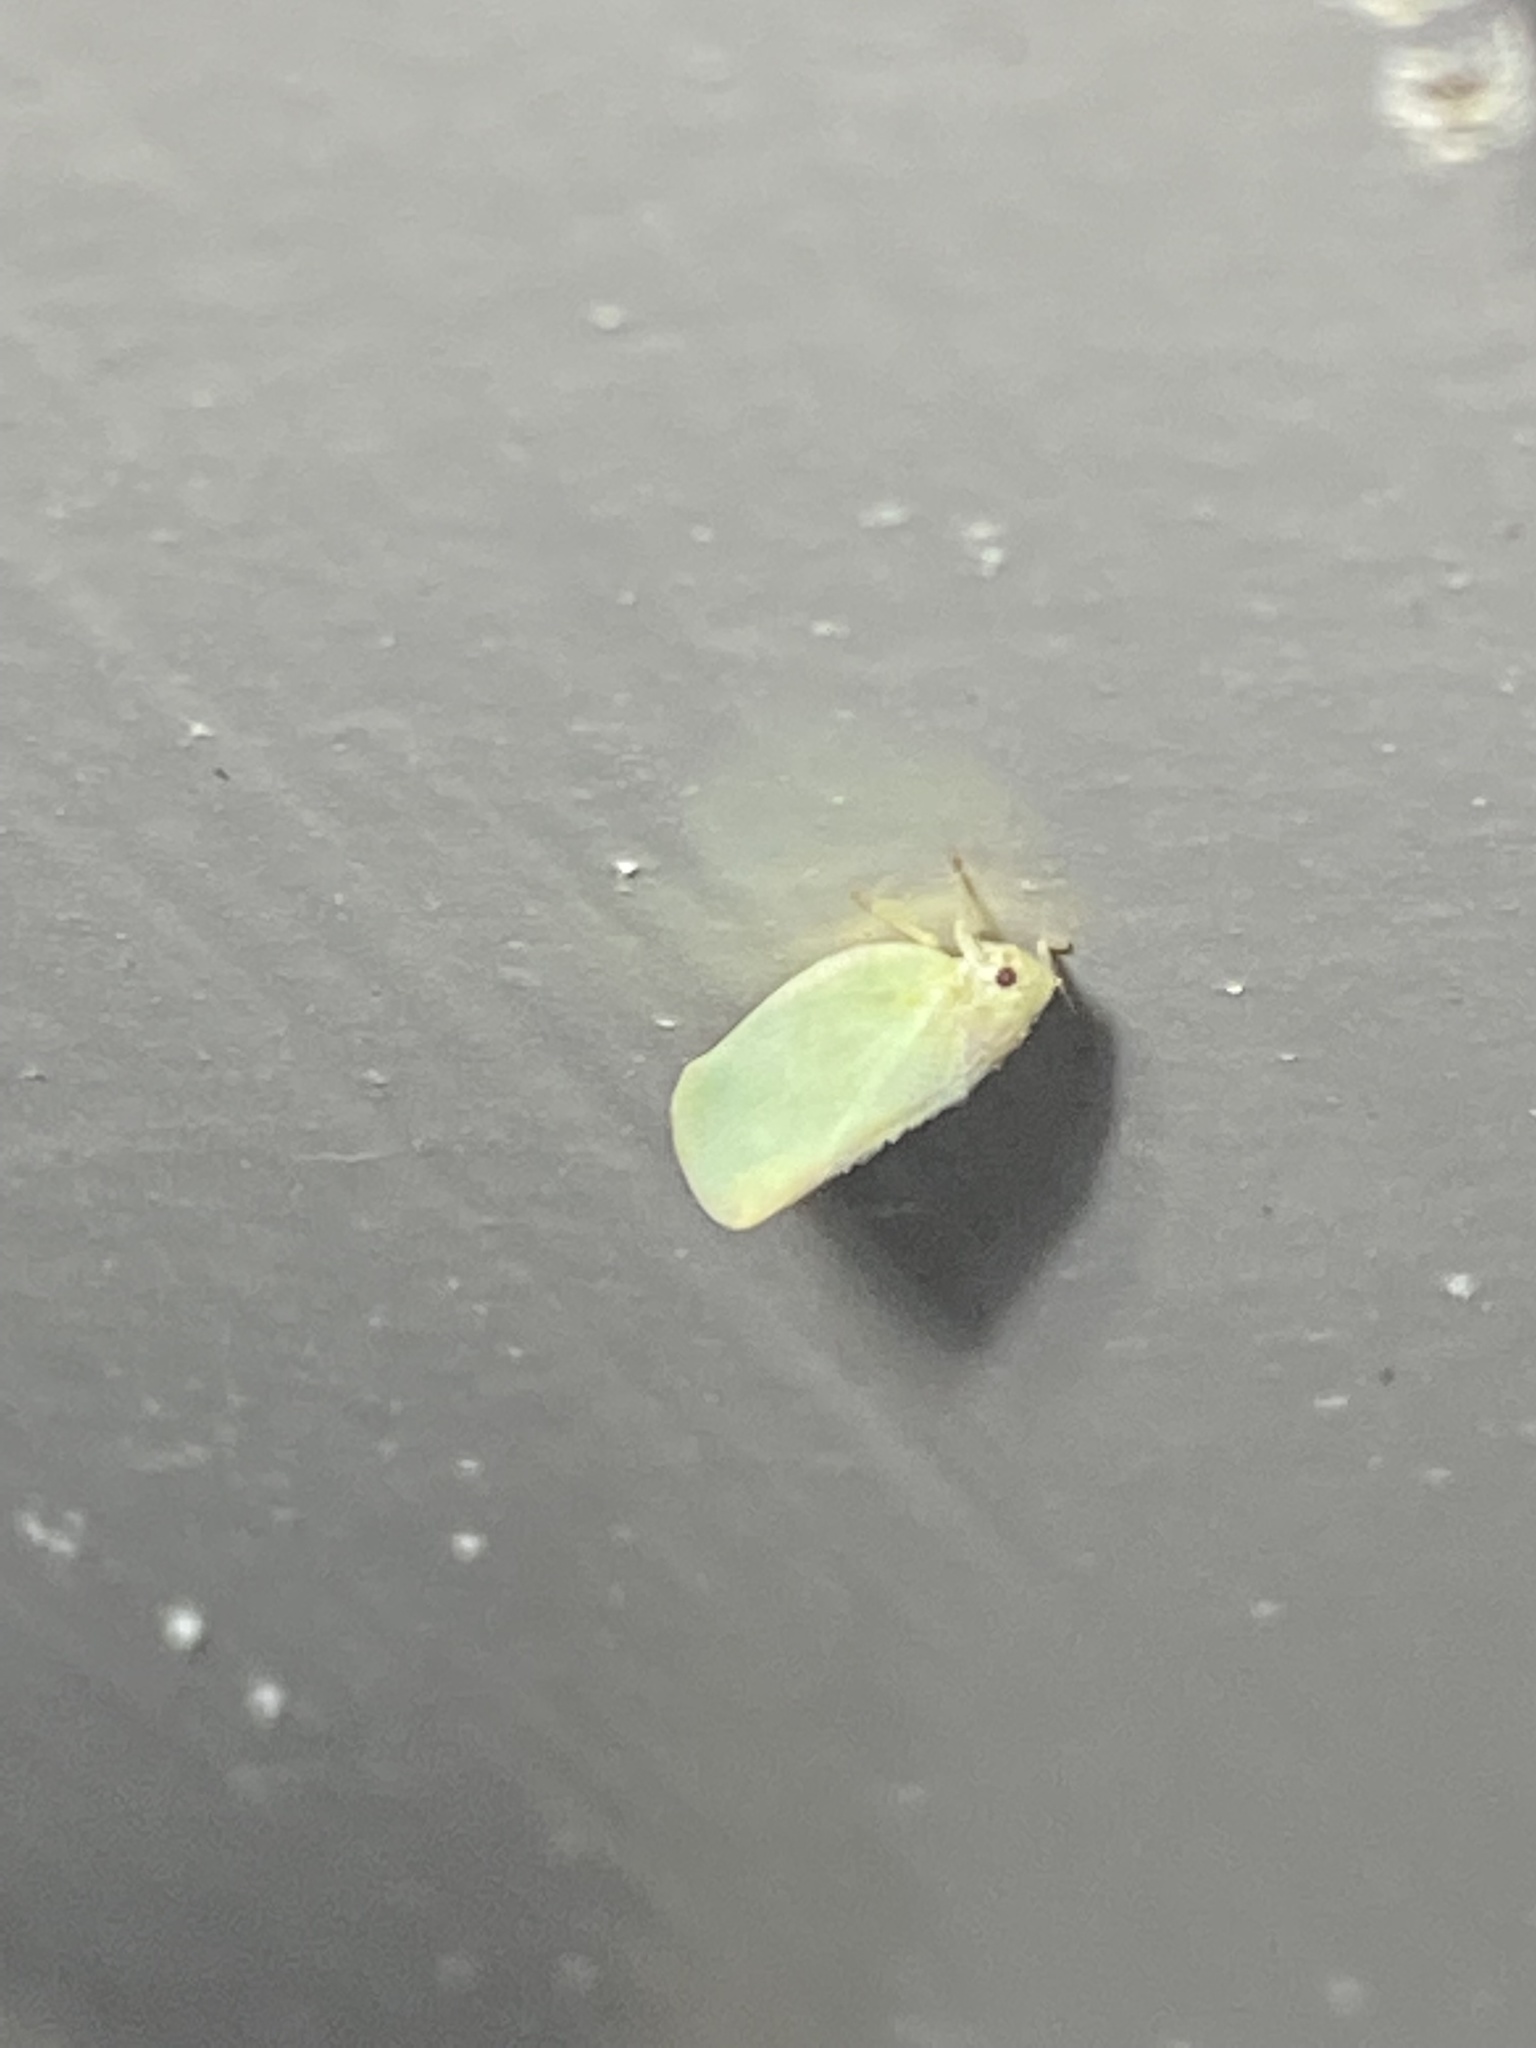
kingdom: Animalia
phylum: Arthropoda
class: Insecta
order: Hemiptera
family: Flatidae
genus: Ormenoides
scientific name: Ormenoides venusta
